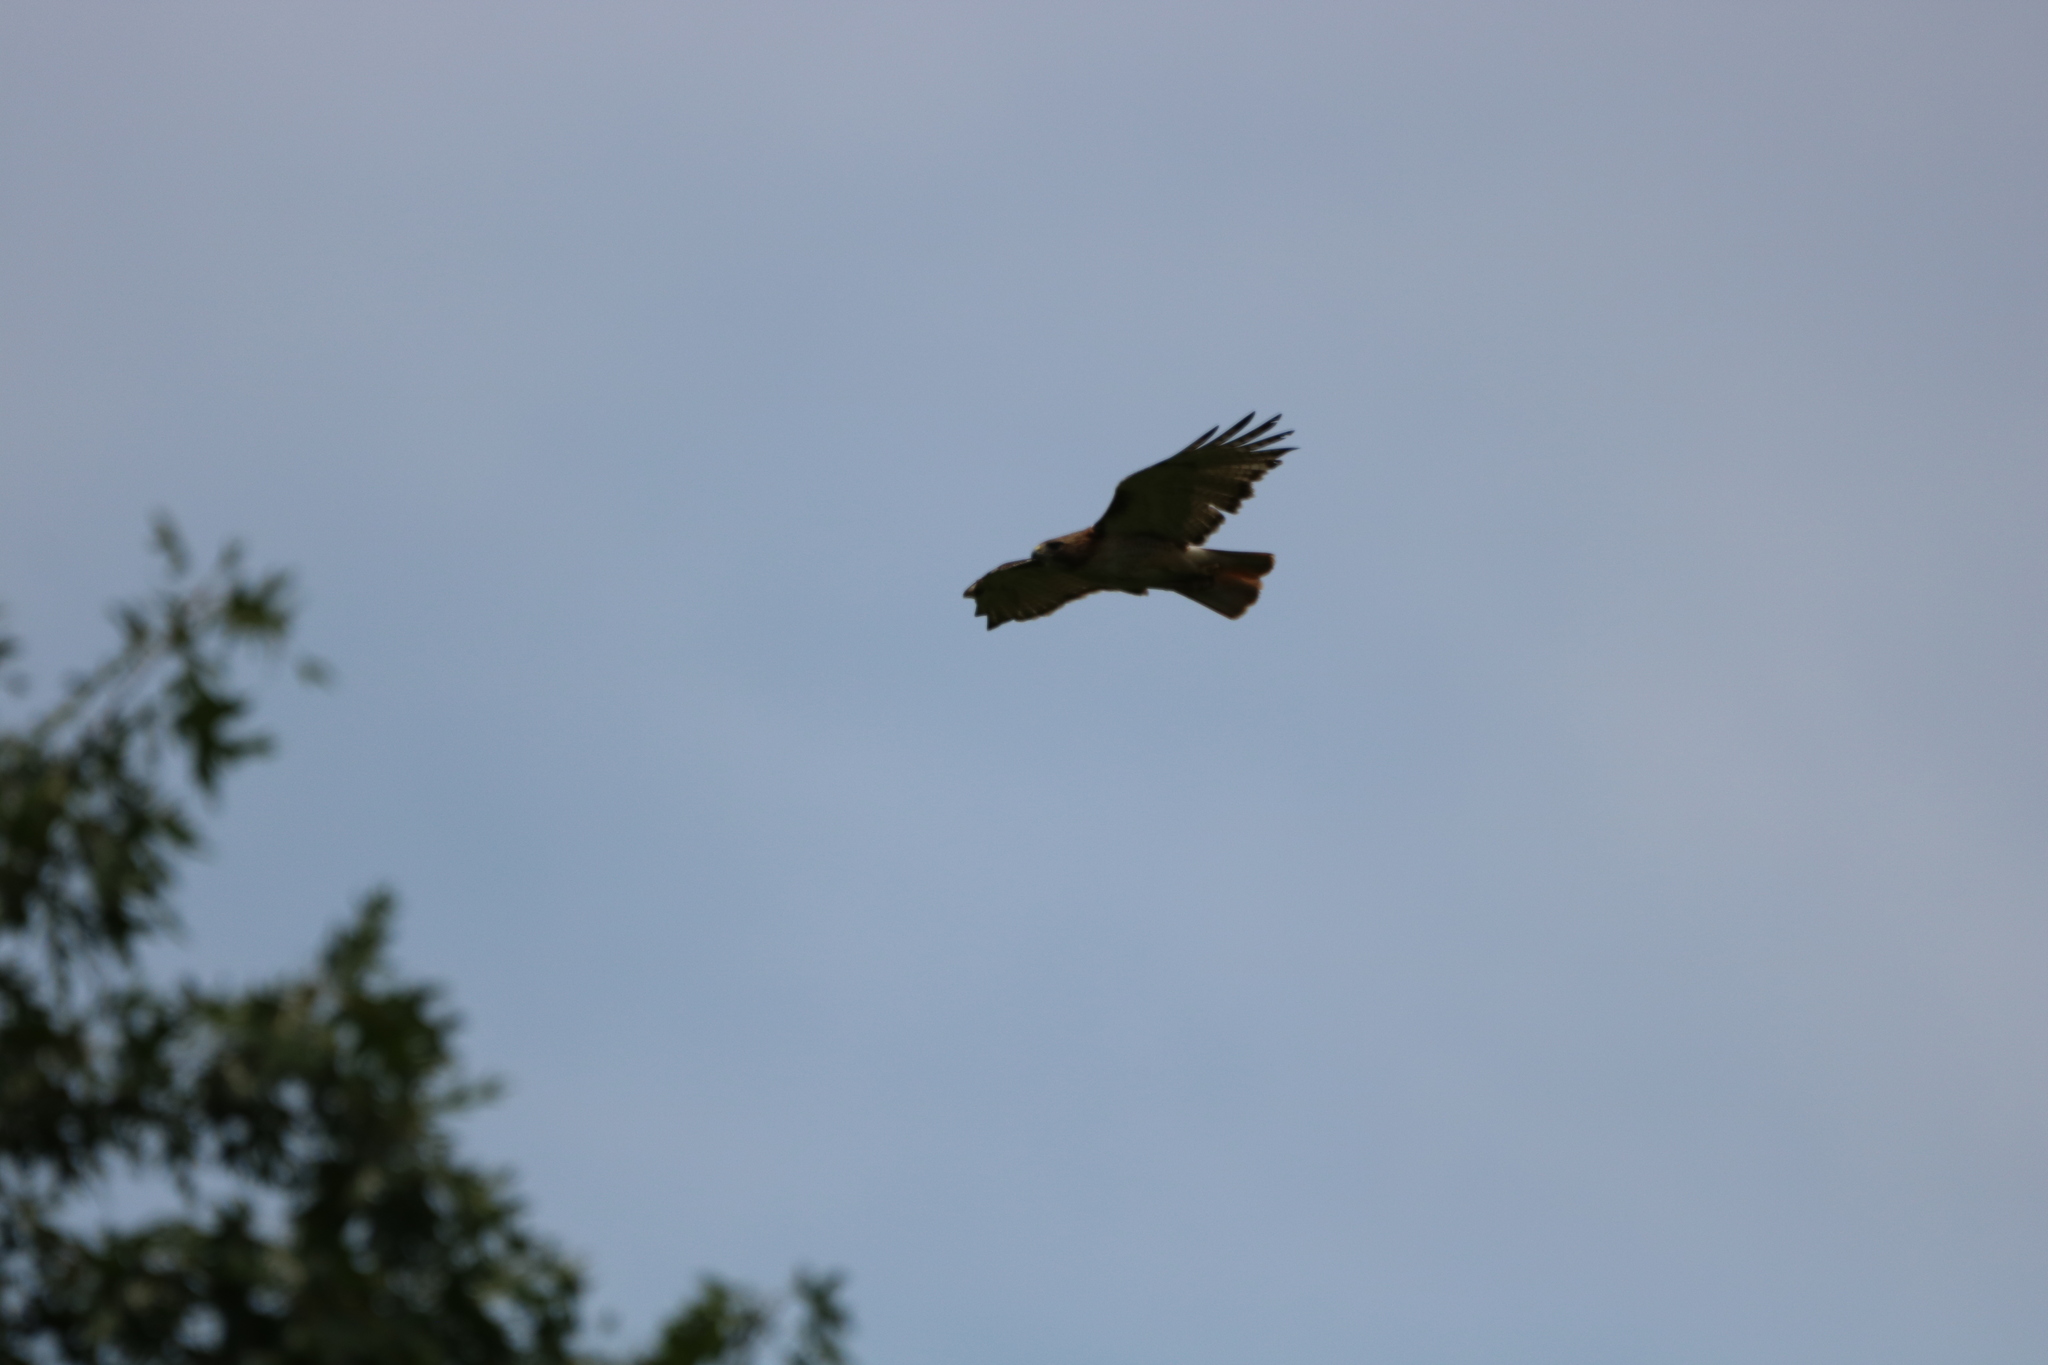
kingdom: Animalia
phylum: Chordata
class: Aves
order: Accipitriformes
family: Accipitridae
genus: Buteo
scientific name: Buteo jamaicensis
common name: Red-tailed hawk
